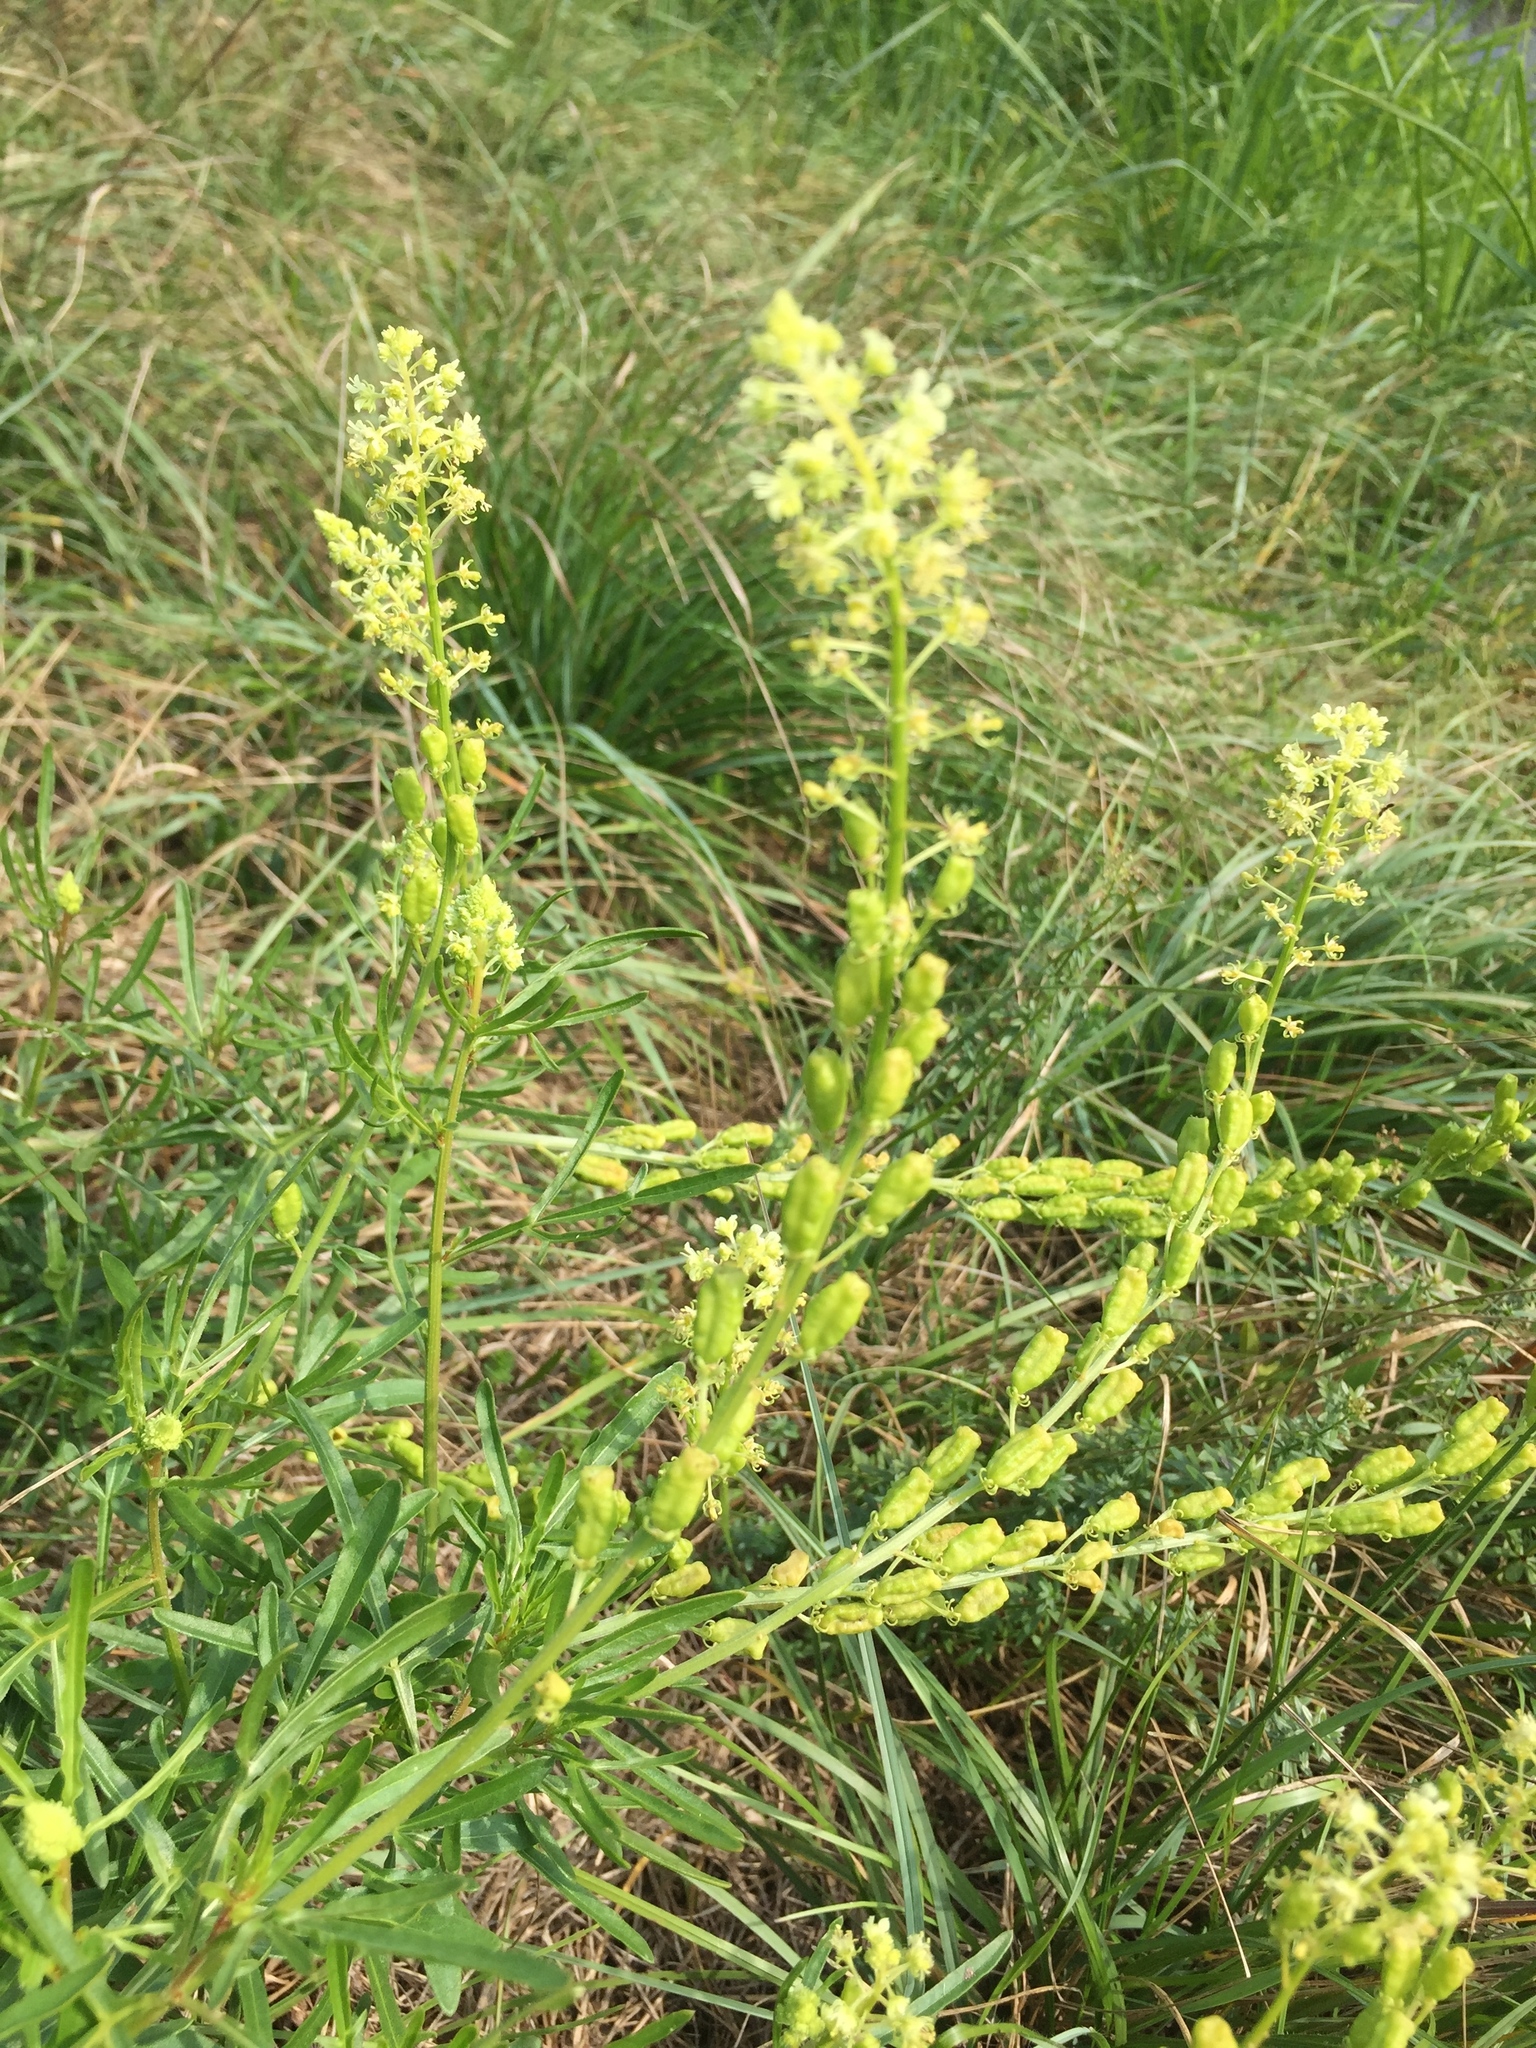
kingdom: Plantae
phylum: Tracheophyta
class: Magnoliopsida
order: Brassicales
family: Resedaceae
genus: Reseda
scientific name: Reseda lutea
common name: Wild mignonette
